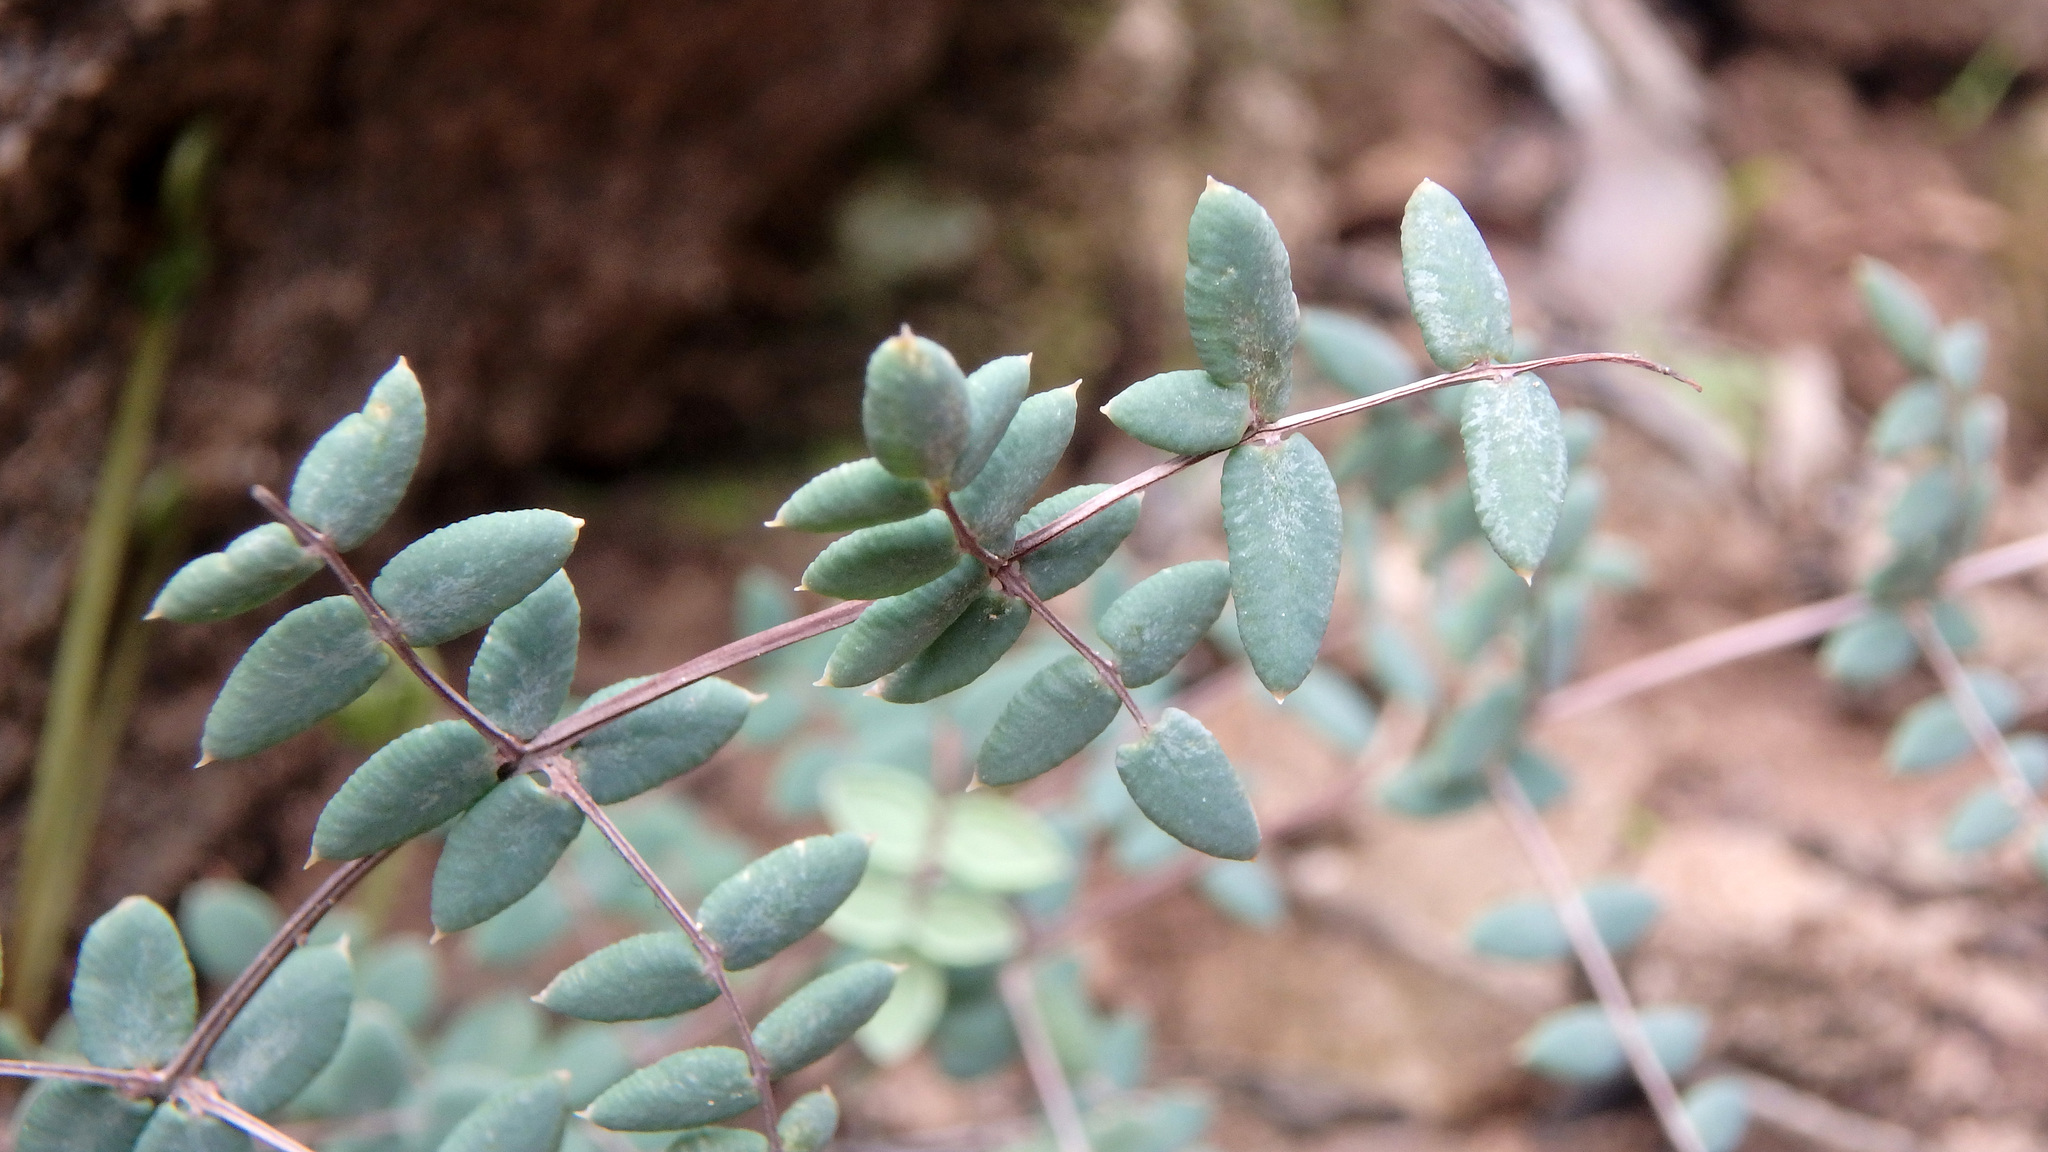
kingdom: Plantae
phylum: Tracheophyta
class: Polypodiopsida
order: Polypodiales
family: Pteridaceae
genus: Pellaea
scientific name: Pellaea truncata
